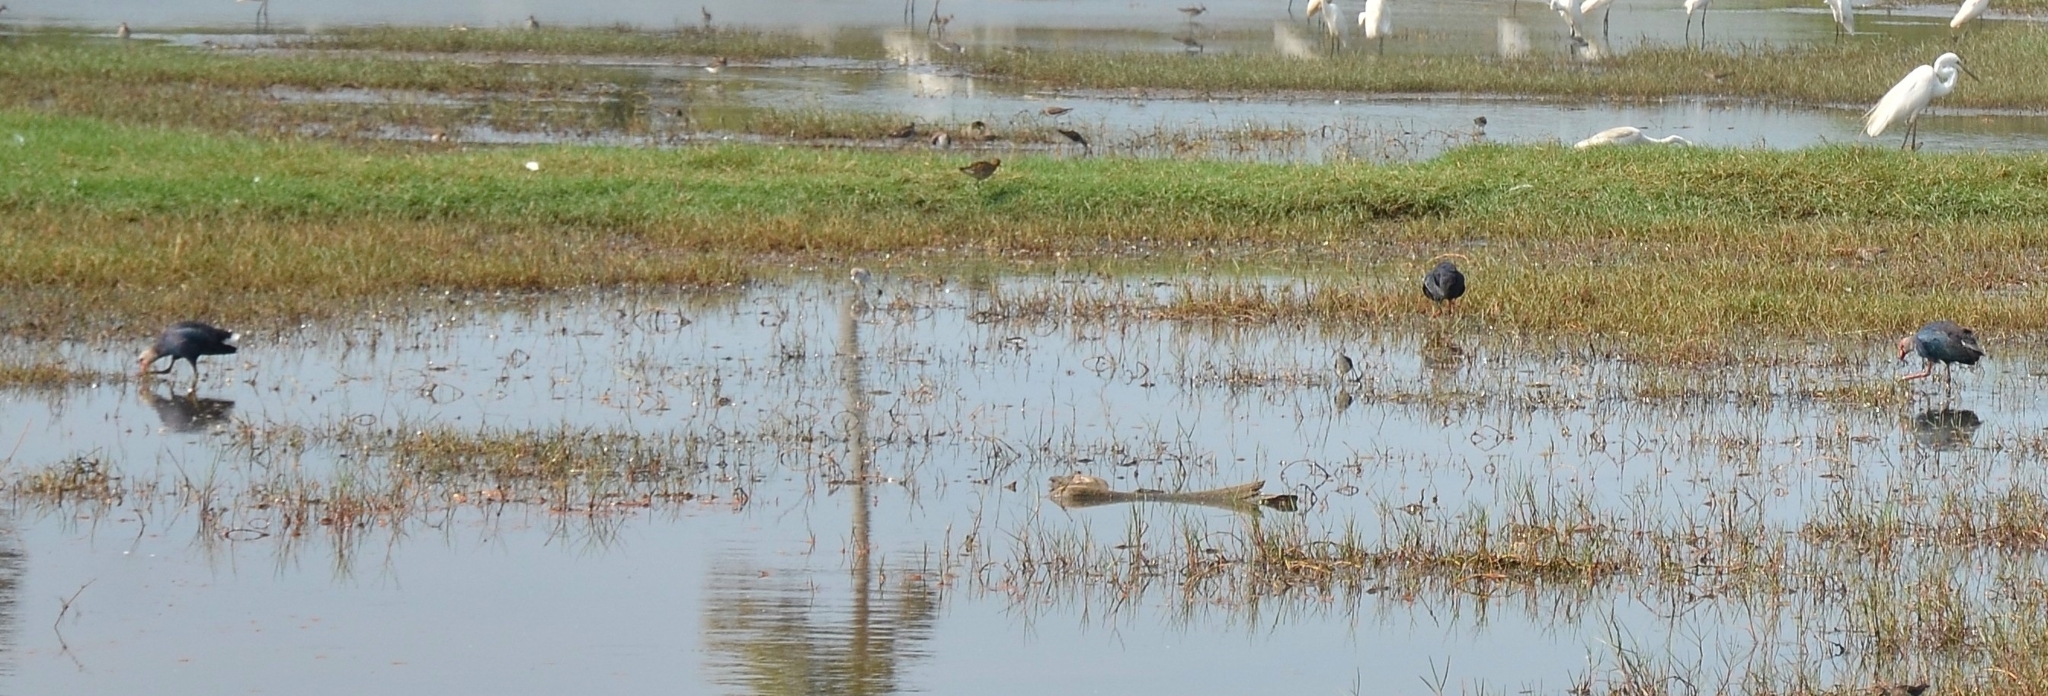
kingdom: Animalia
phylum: Chordata
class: Aves
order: Gruiformes
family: Rallidae
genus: Porphyrio
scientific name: Porphyrio porphyrio
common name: Purple swamphen
